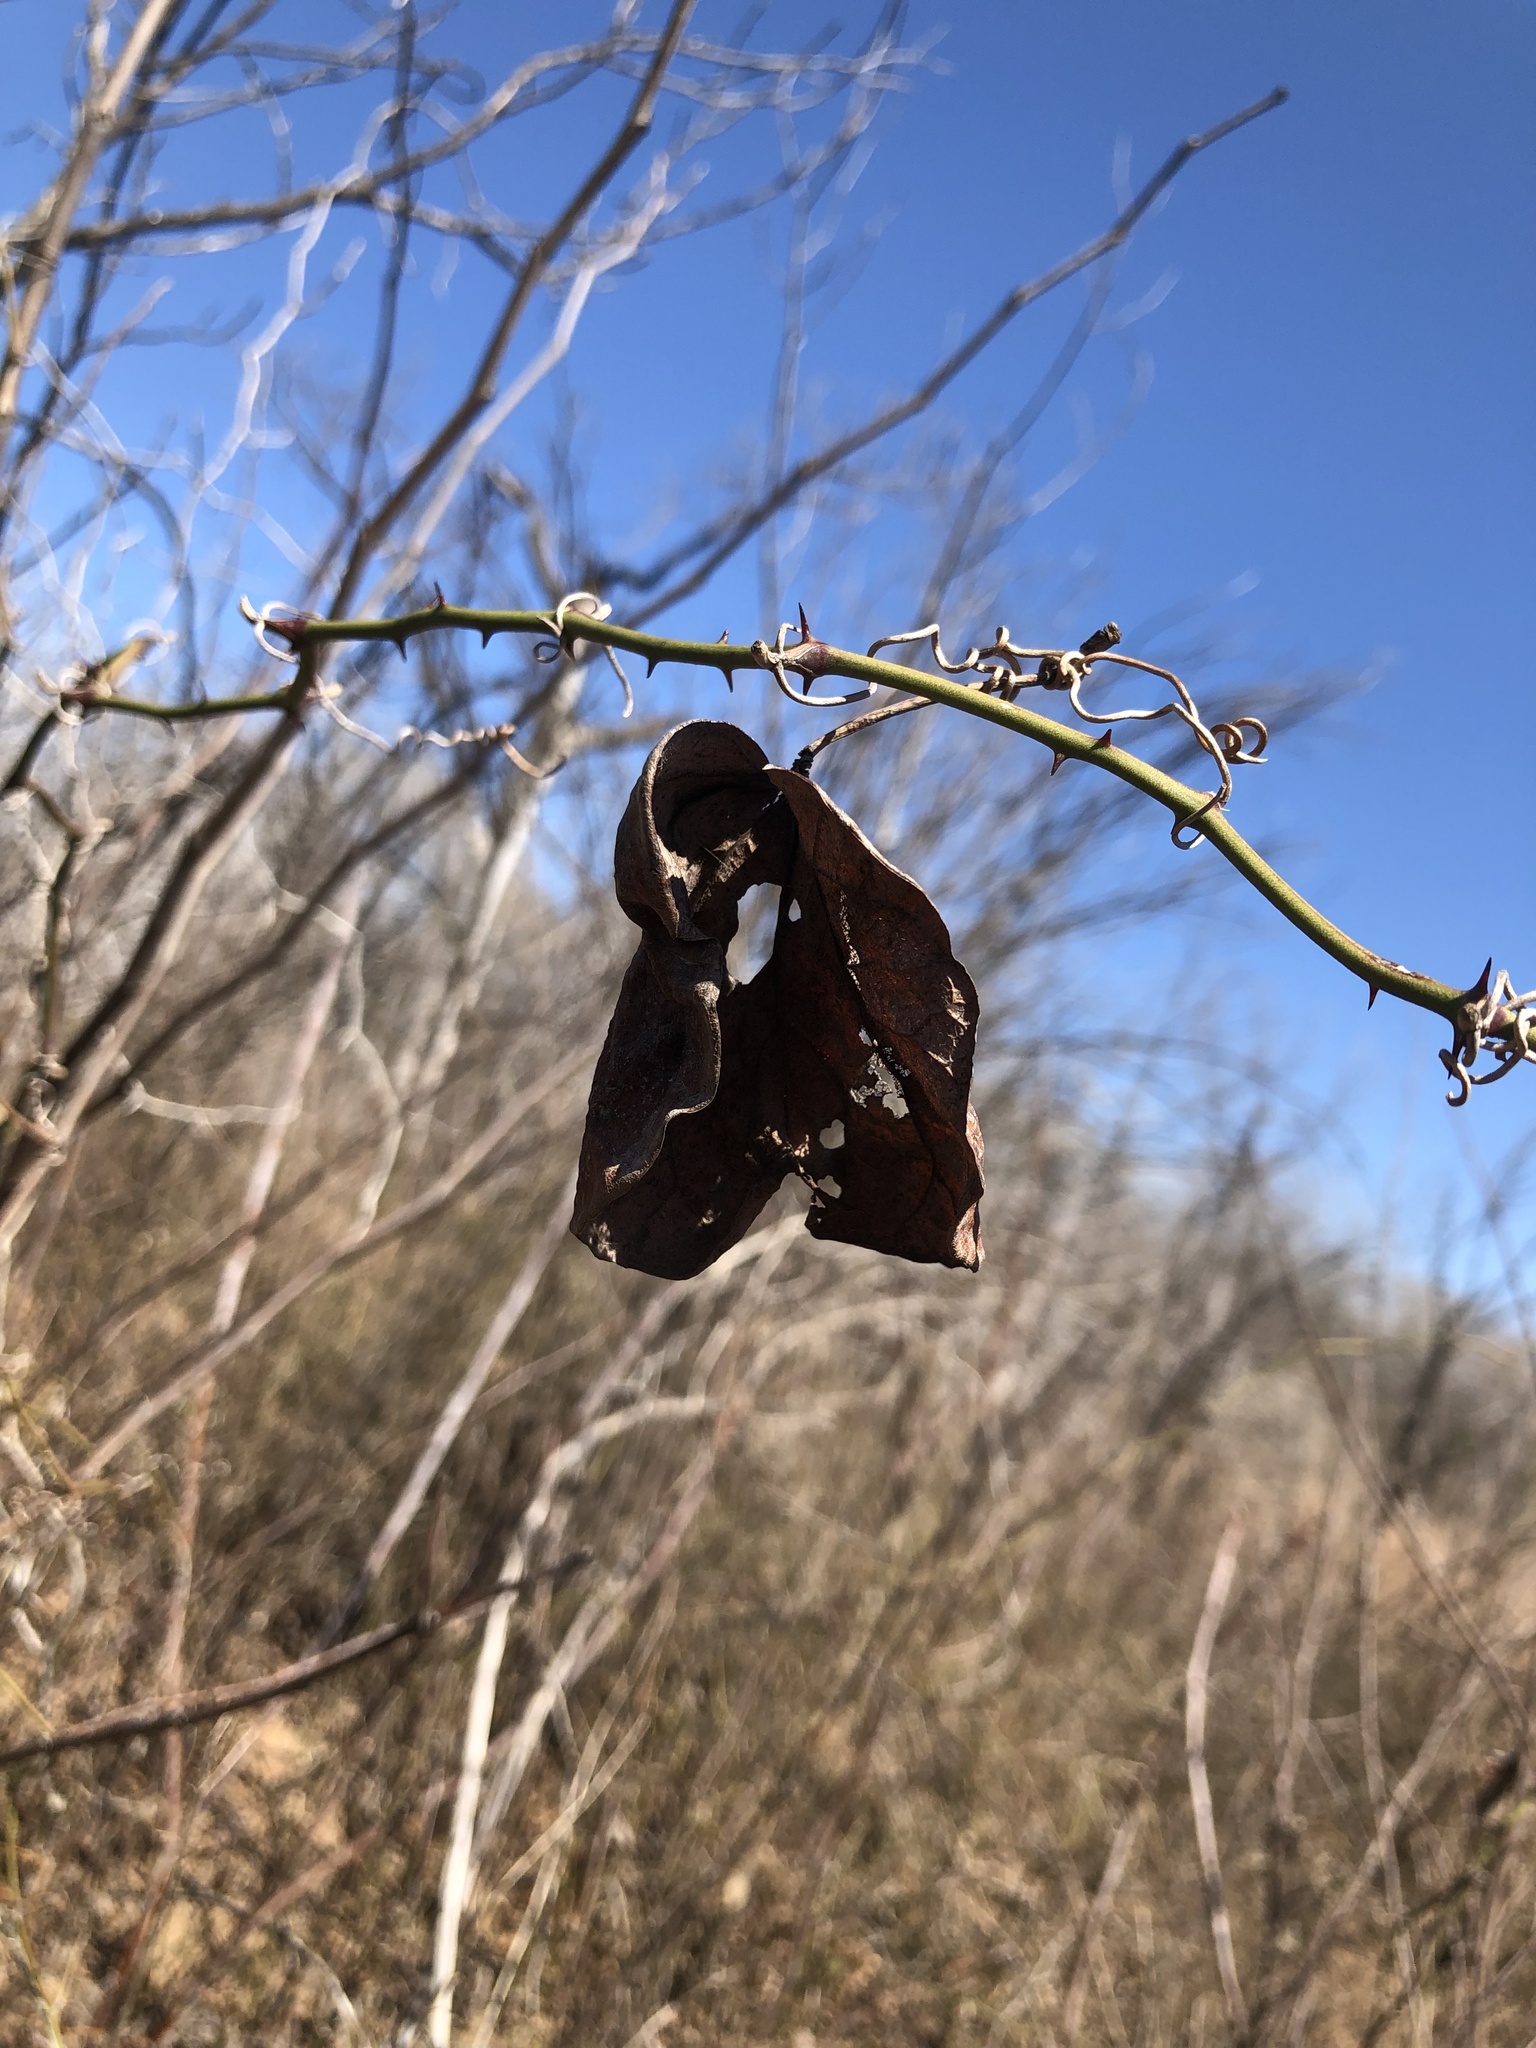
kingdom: Plantae
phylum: Tracheophyta
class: Liliopsida
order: Liliales
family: Smilacaceae
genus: Smilax
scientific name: Smilax bona-nox
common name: Catbrier
